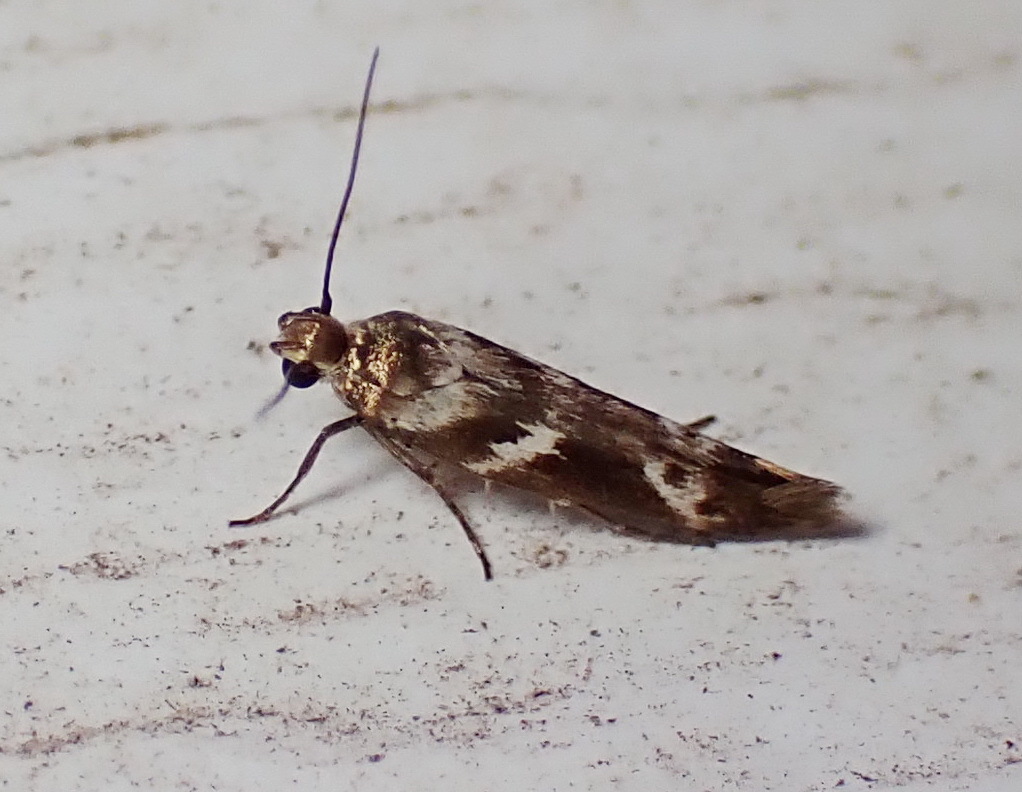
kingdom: Animalia
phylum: Arthropoda
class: Insecta
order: Lepidoptera
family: Scythrididae
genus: Scythris
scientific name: Scythris trivinctella
